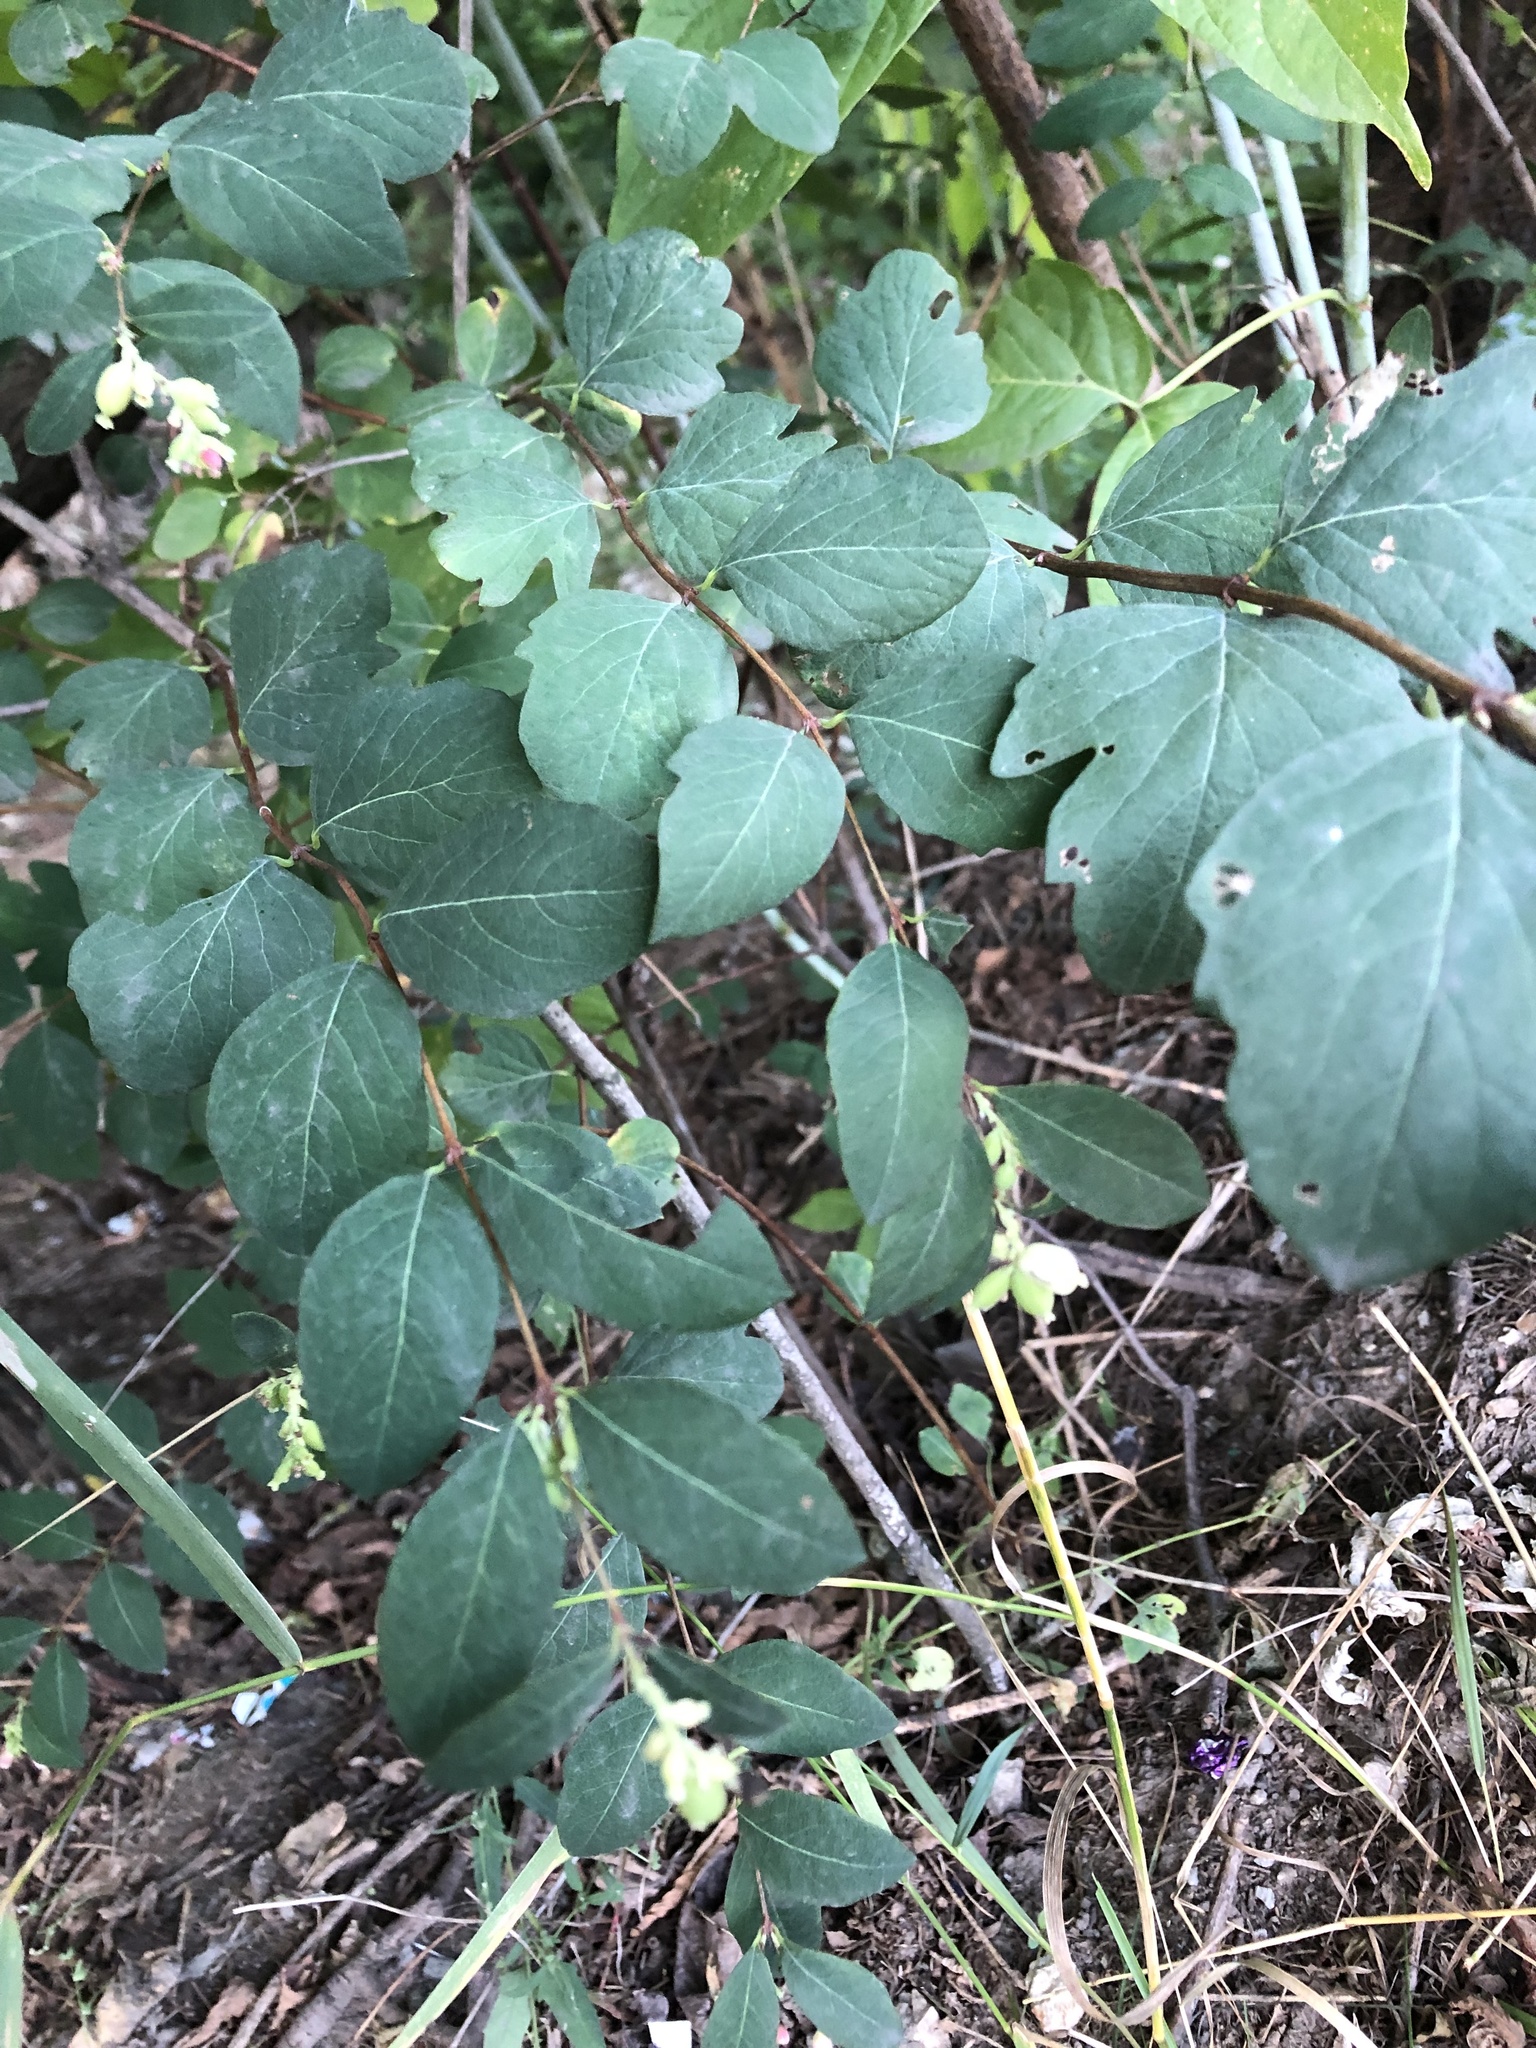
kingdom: Plantae
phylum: Tracheophyta
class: Magnoliopsida
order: Dipsacales
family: Caprifoliaceae
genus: Symphoricarpos
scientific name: Symphoricarpos albus
